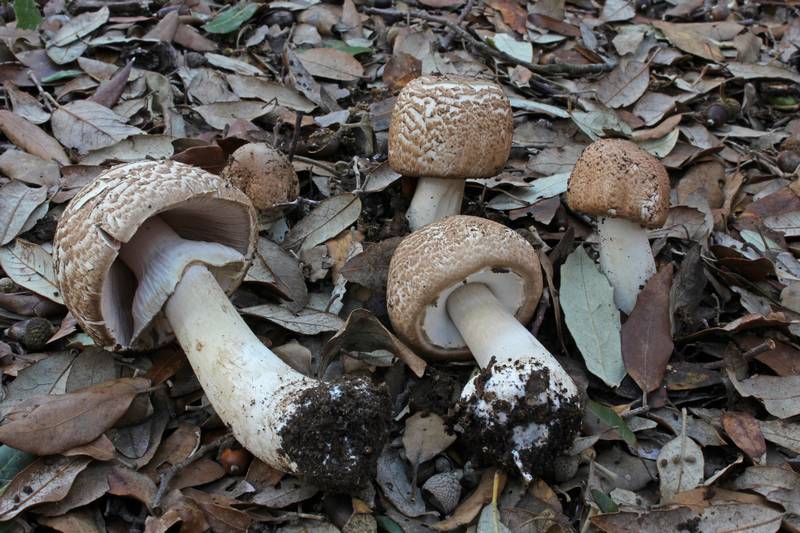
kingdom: Fungi
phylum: Basidiomycota
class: Agaricomycetes
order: Agaricales
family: Agaricaceae
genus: Agaricus
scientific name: Agaricus phaeolepidotus
